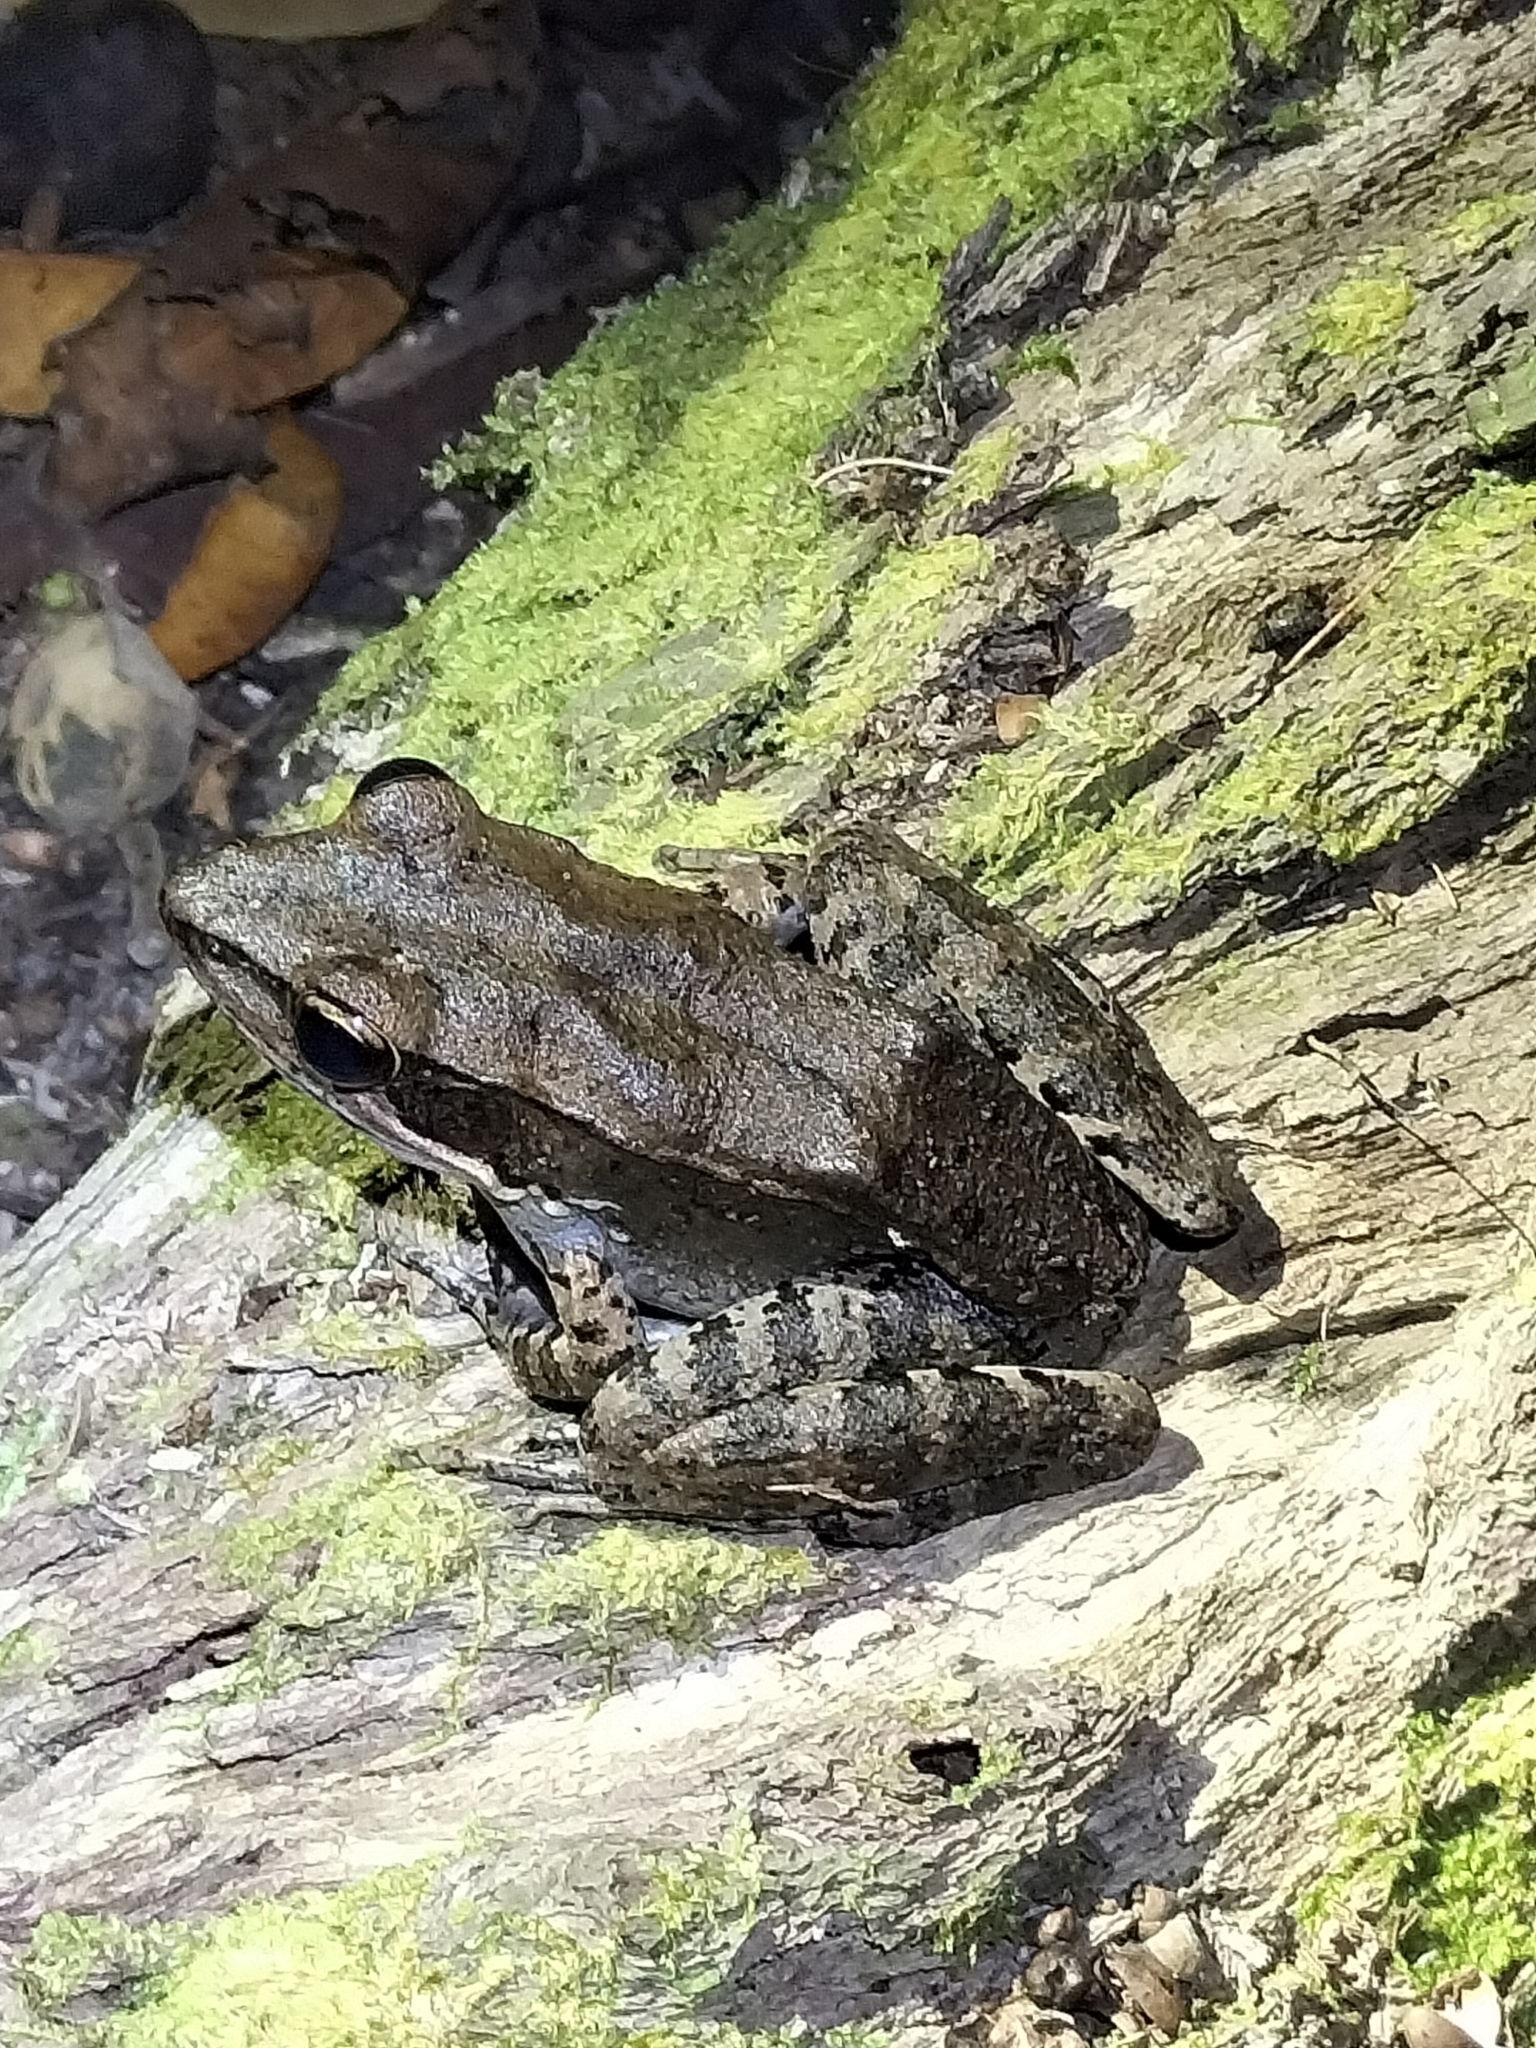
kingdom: Animalia
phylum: Chordata
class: Amphibia
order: Anura
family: Ranidae
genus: Papurana
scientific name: Papurana daemeli
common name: Arhem rana
